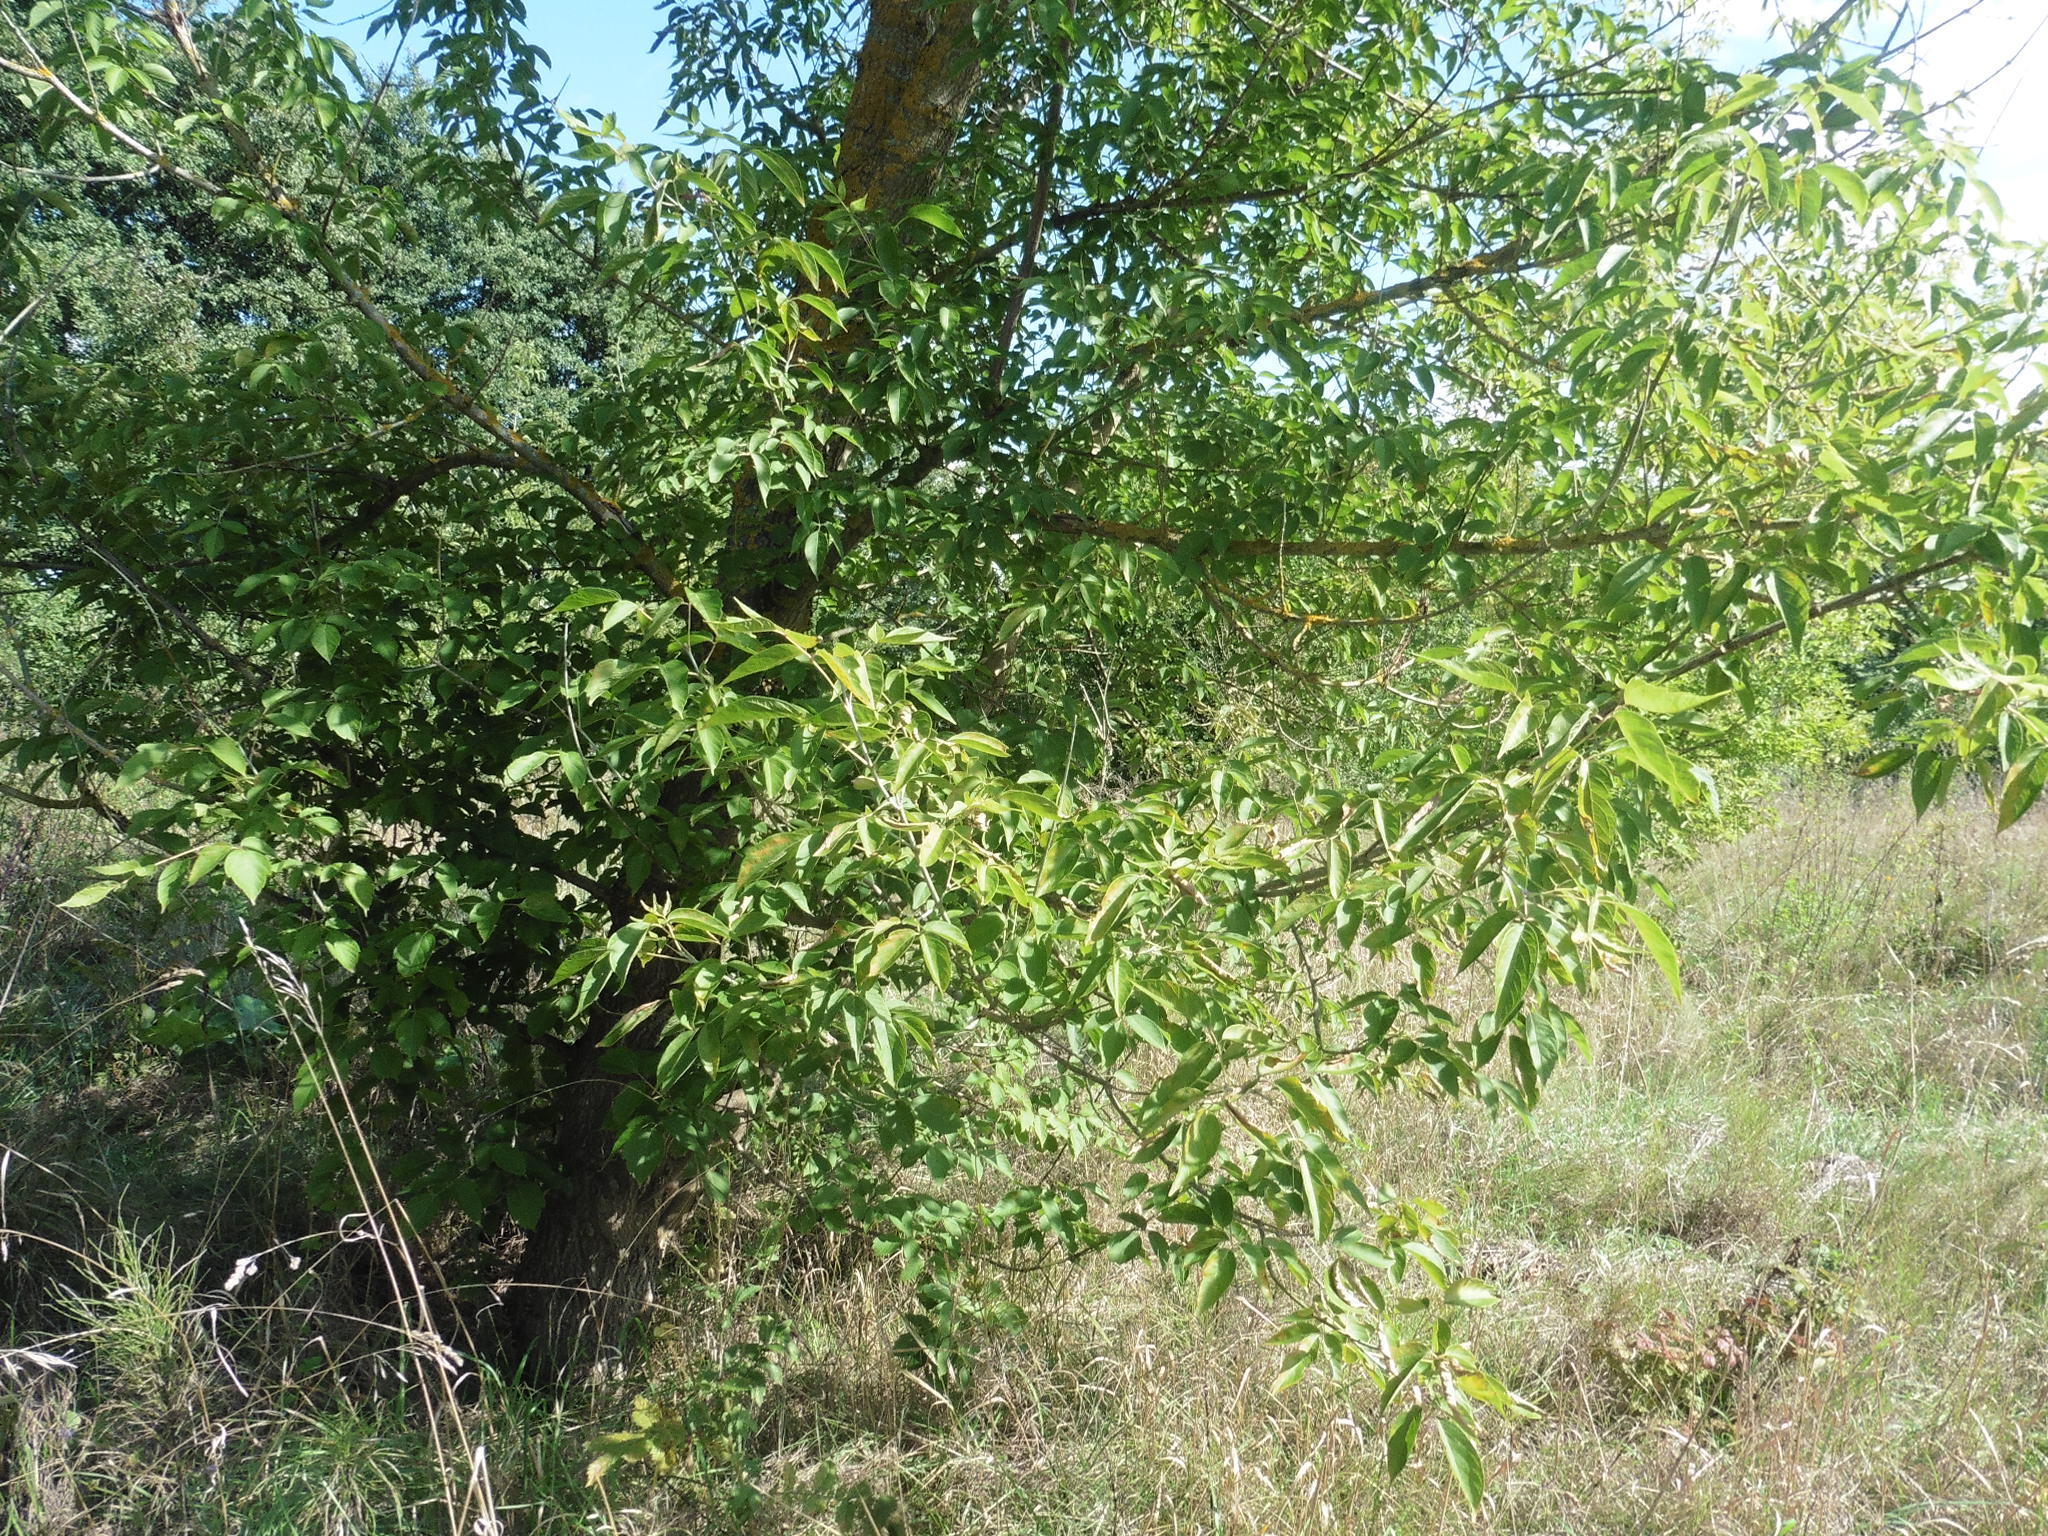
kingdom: Plantae
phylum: Tracheophyta
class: Magnoliopsida
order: Sapindales
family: Sapindaceae
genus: Acer
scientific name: Acer negundo
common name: Ashleaf maple
